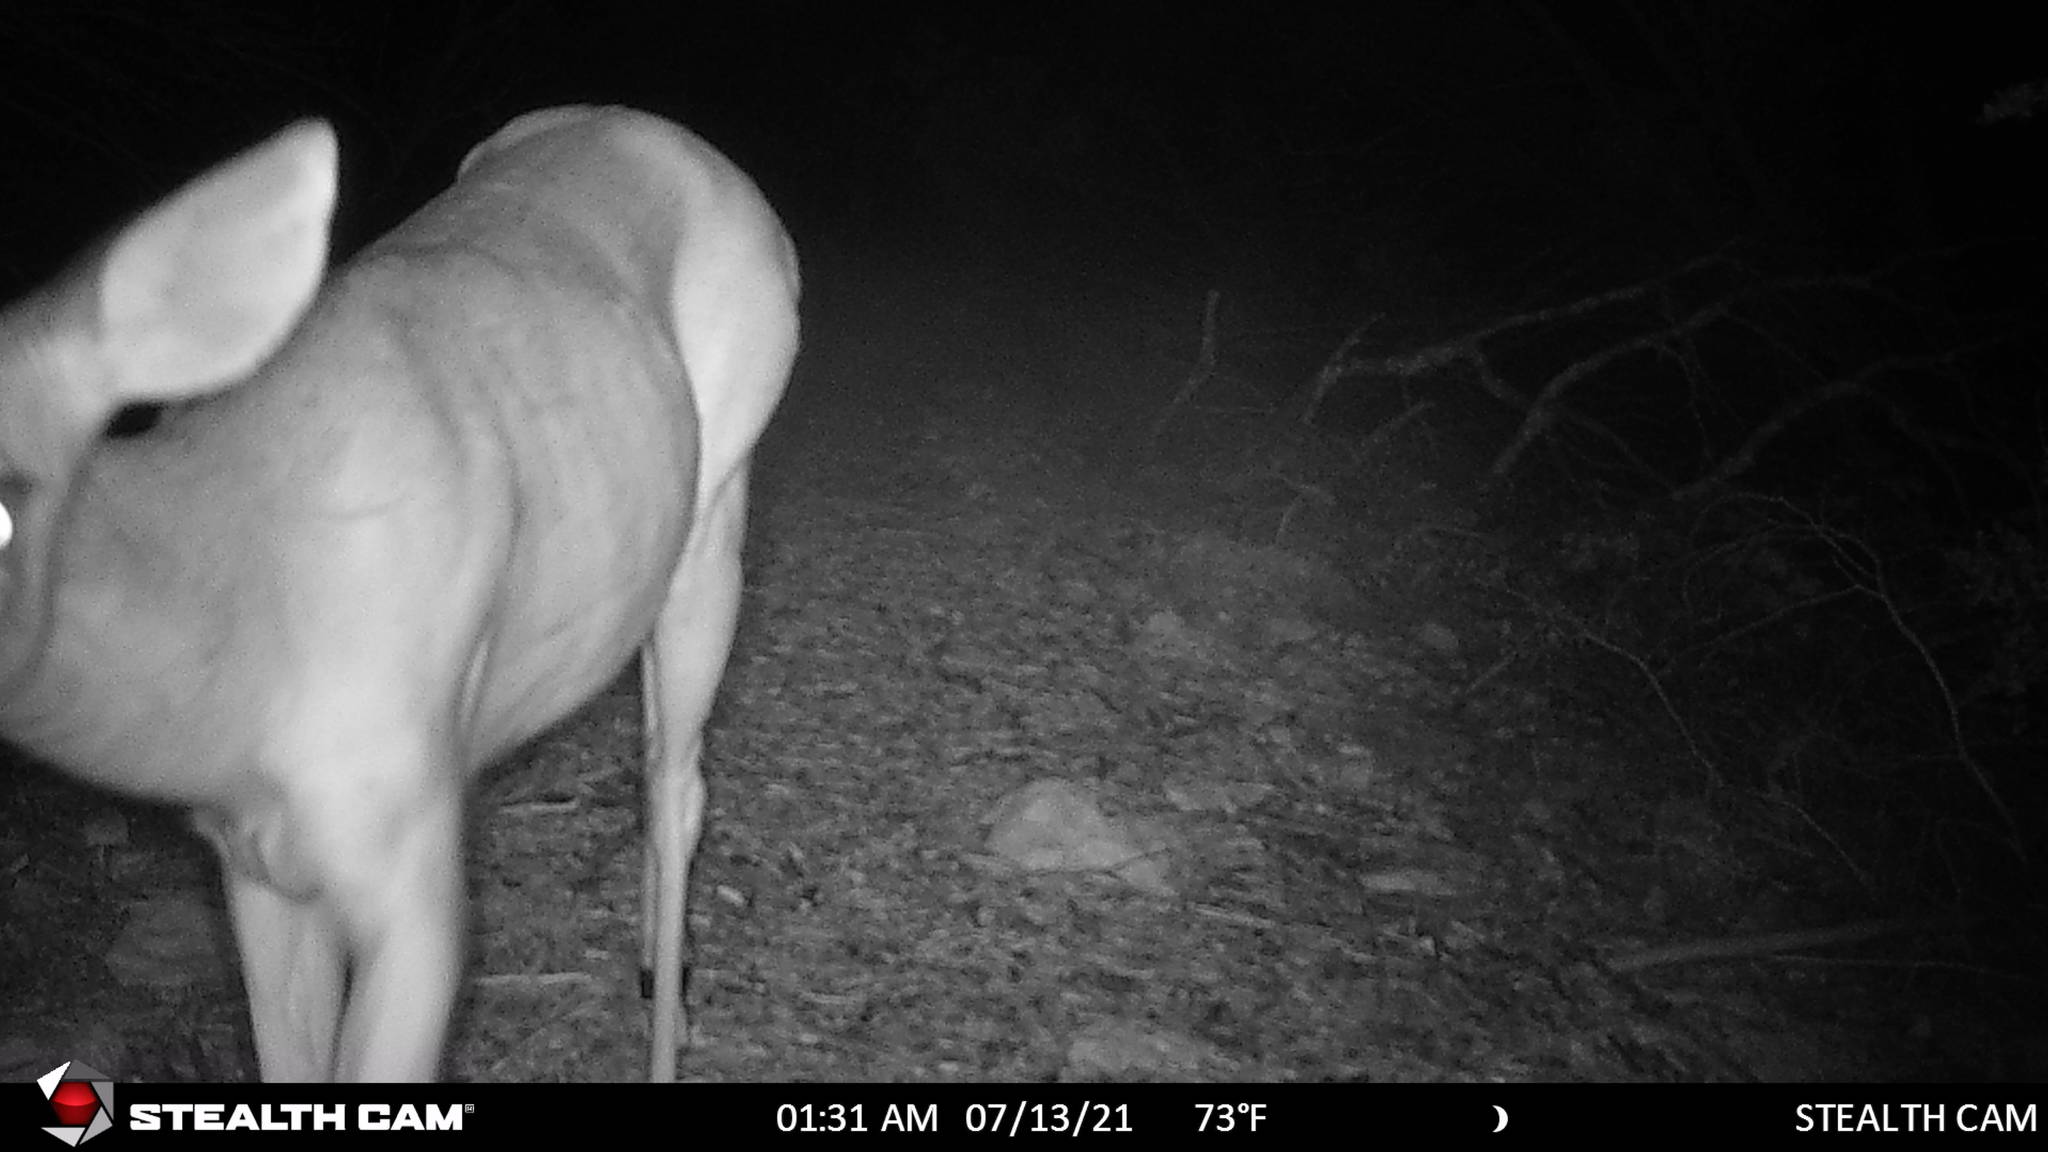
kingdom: Animalia
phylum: Chordata
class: Mammalia
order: Artiodactyla
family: Cervidae
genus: Odocoileus
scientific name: Odocoileus virginianus
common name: White-tailed deer
